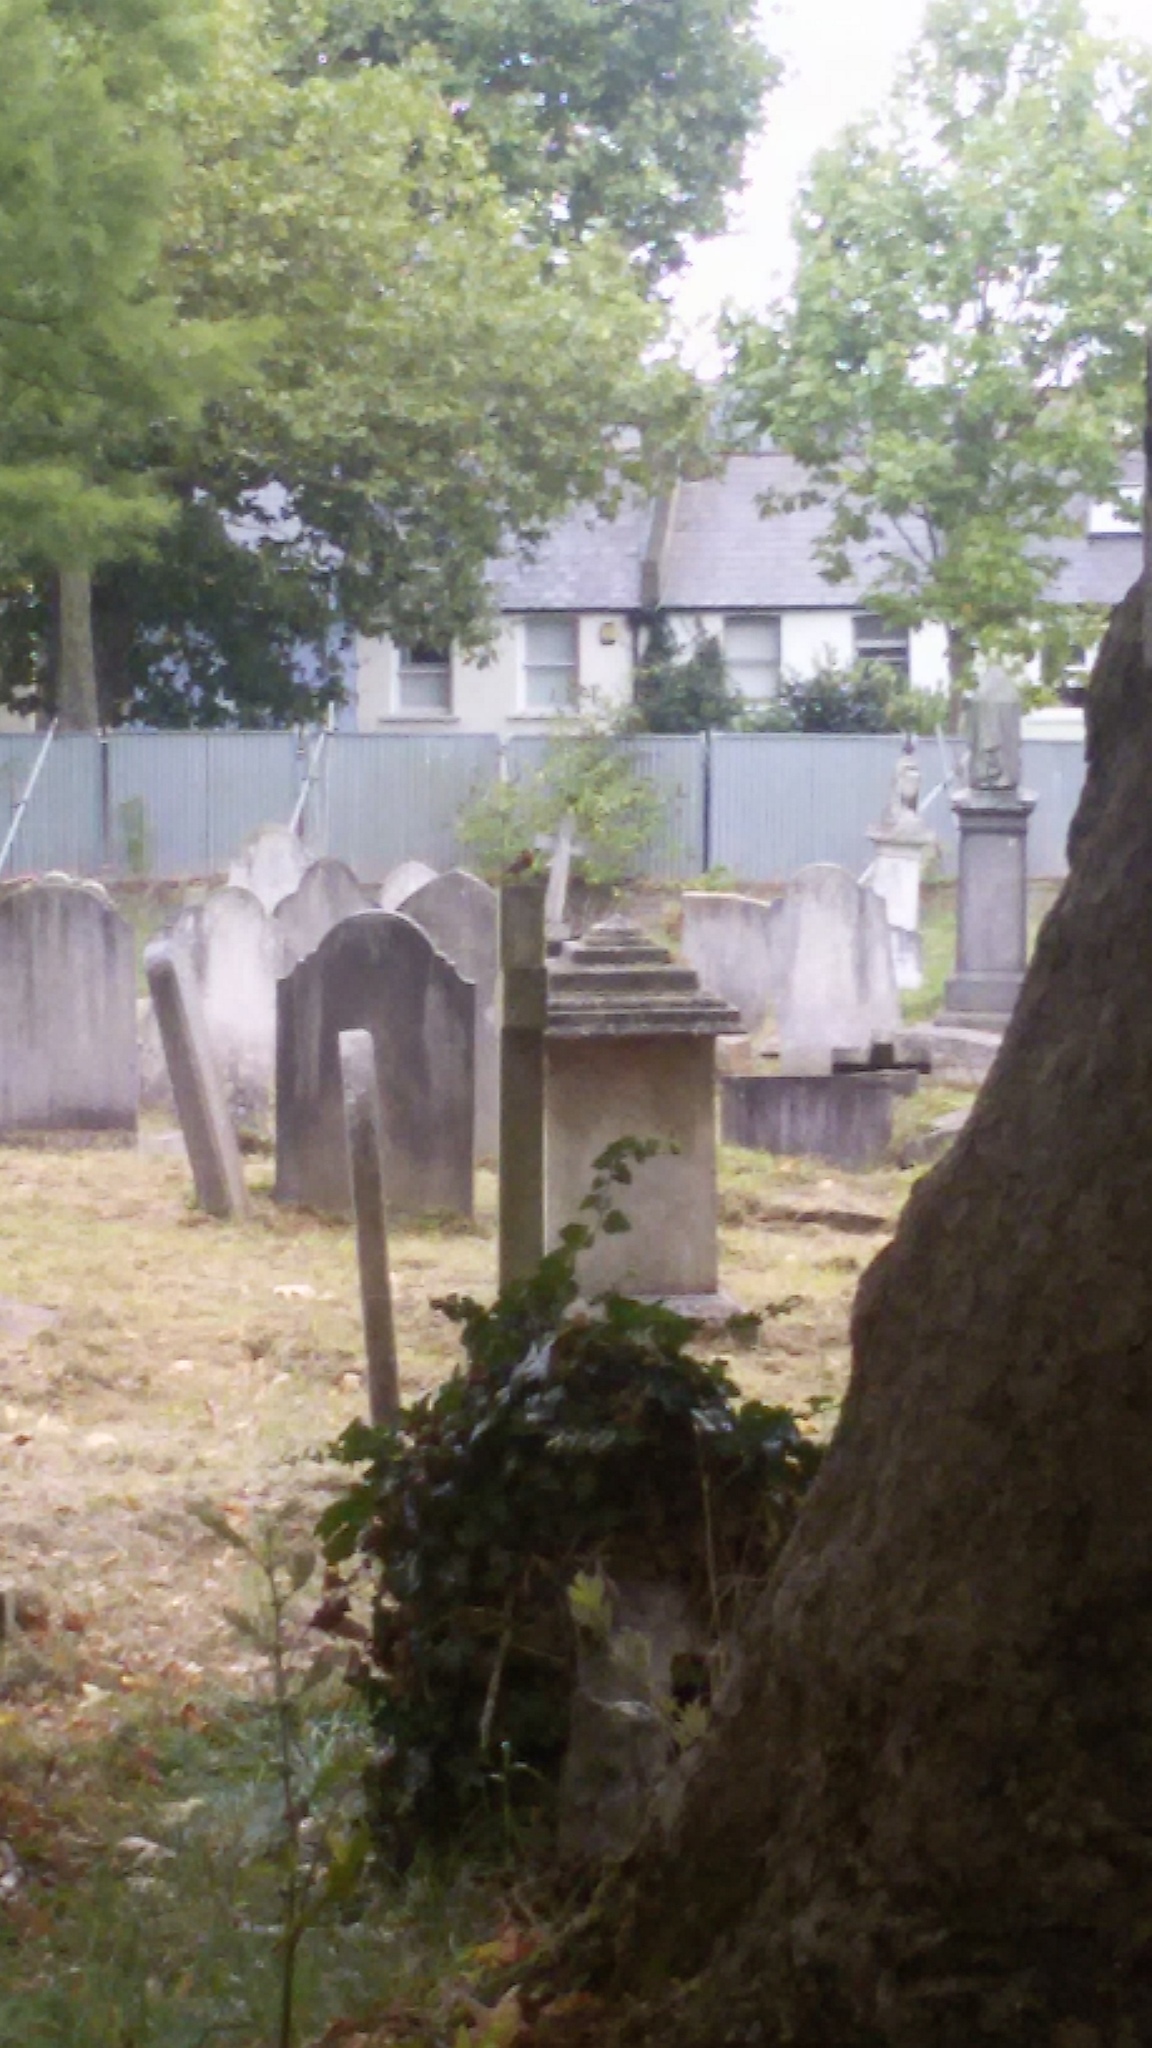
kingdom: Animalia
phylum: Chordata
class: Aves
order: Passeriformes
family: Muscicapidae
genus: Erithacus
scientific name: Erithacus rubecula
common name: European robin
